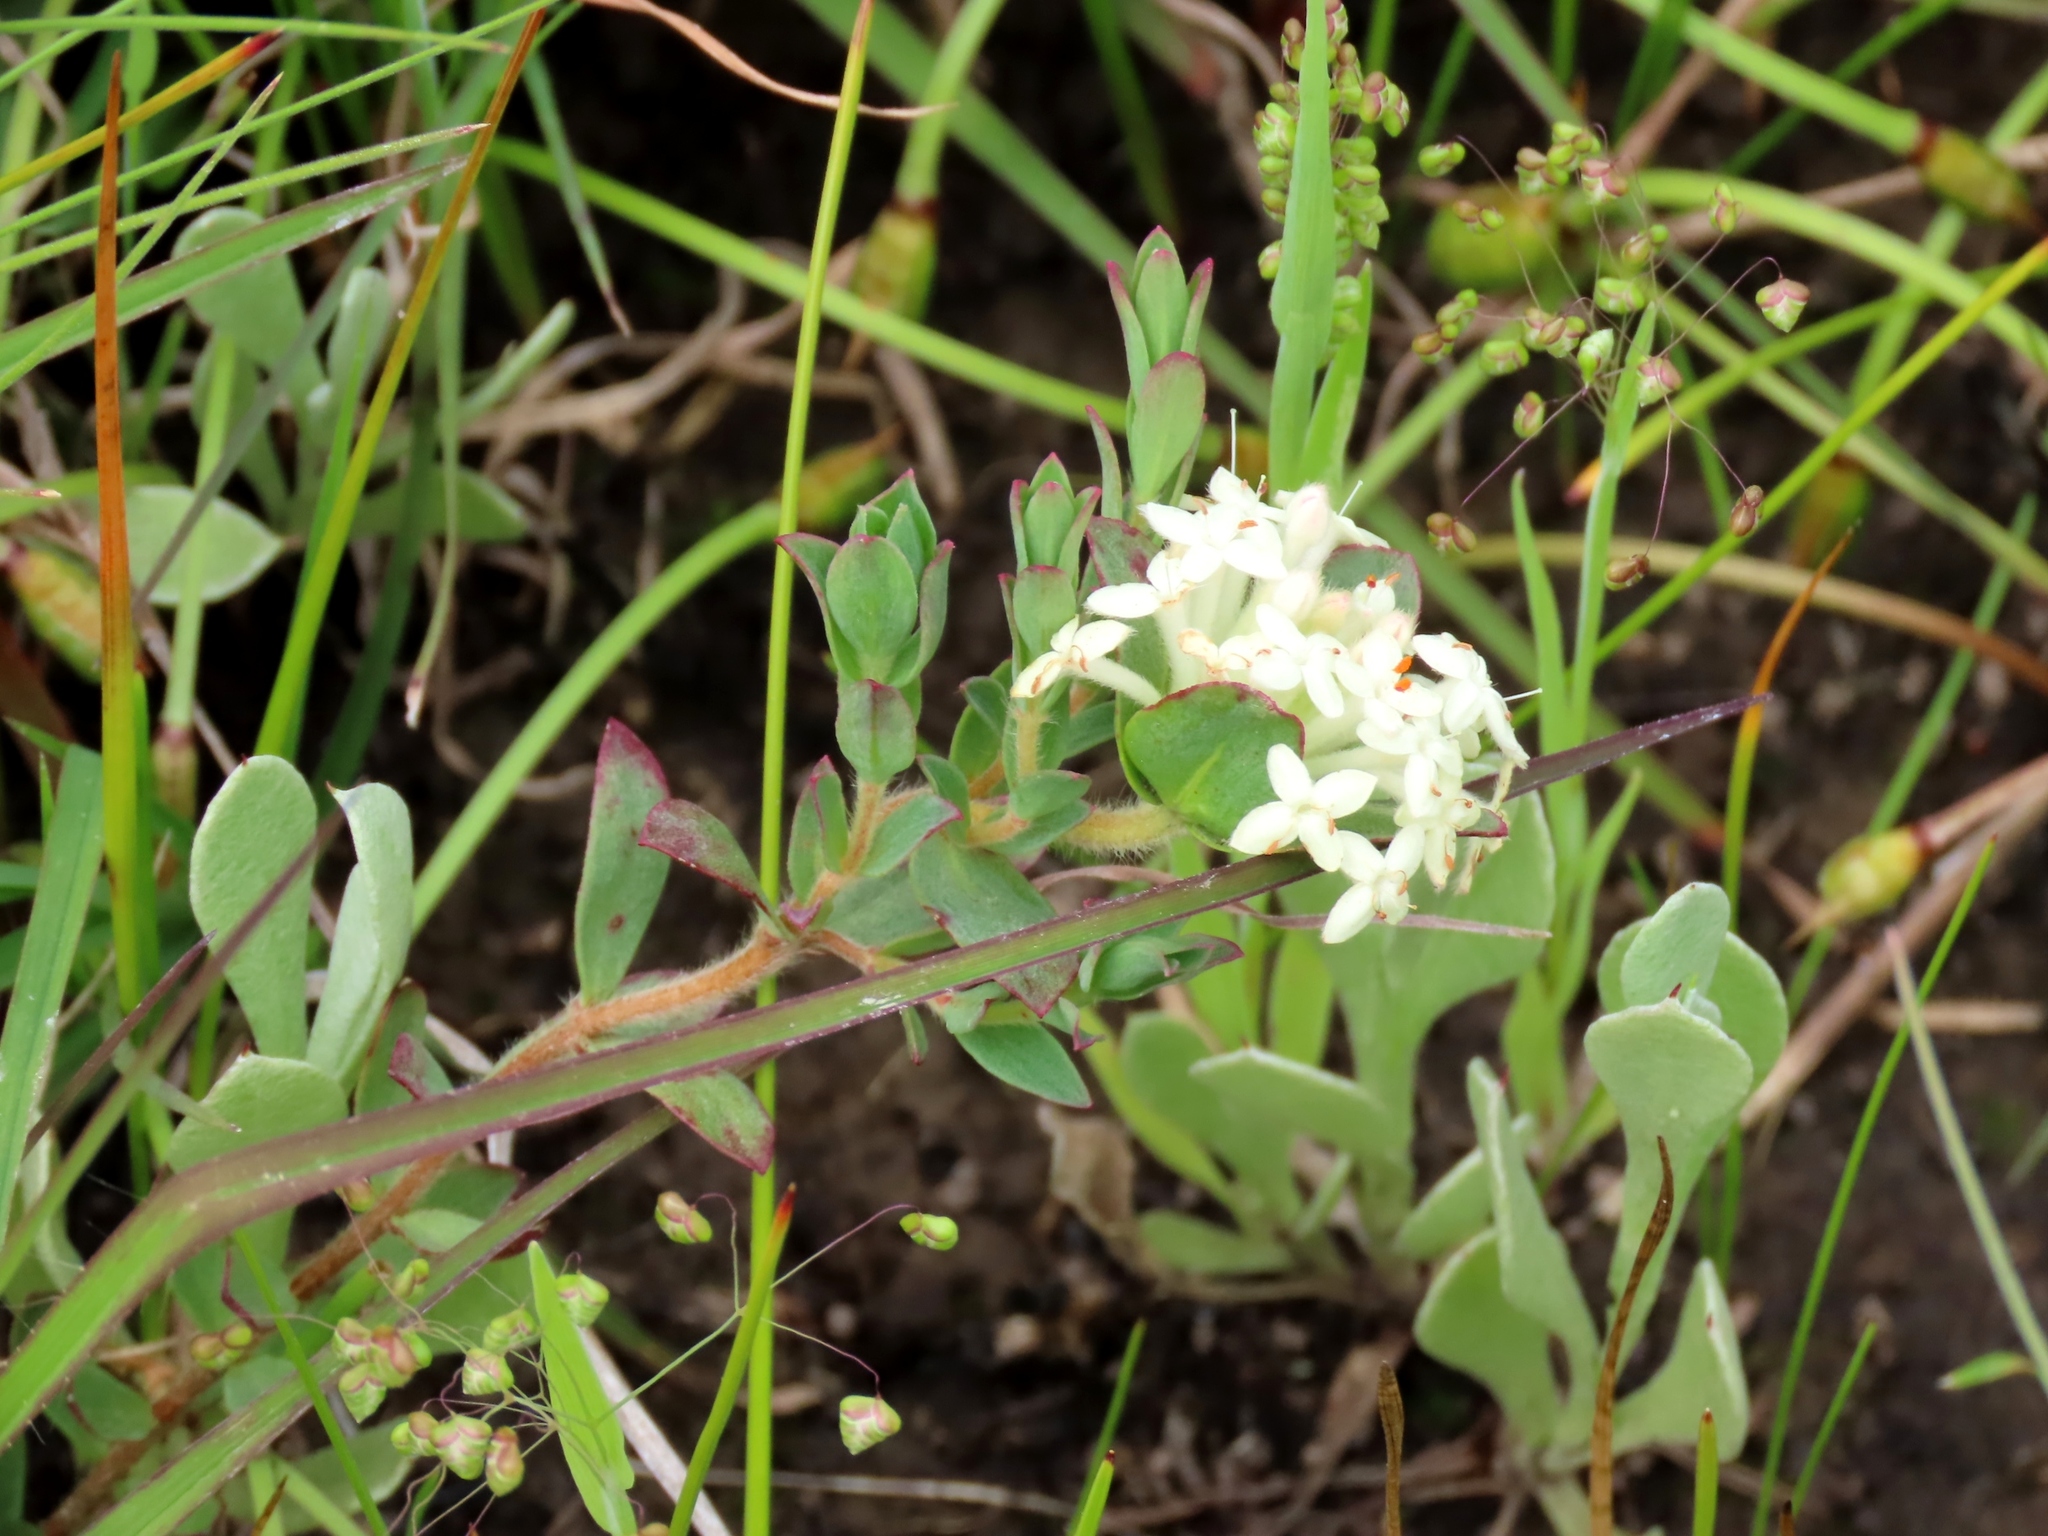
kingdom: Plantae
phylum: Tracheophyta
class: Magnoliopsida
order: Malvales
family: Thymelaeaceae
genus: Pimelea
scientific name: Pimelea humilis
